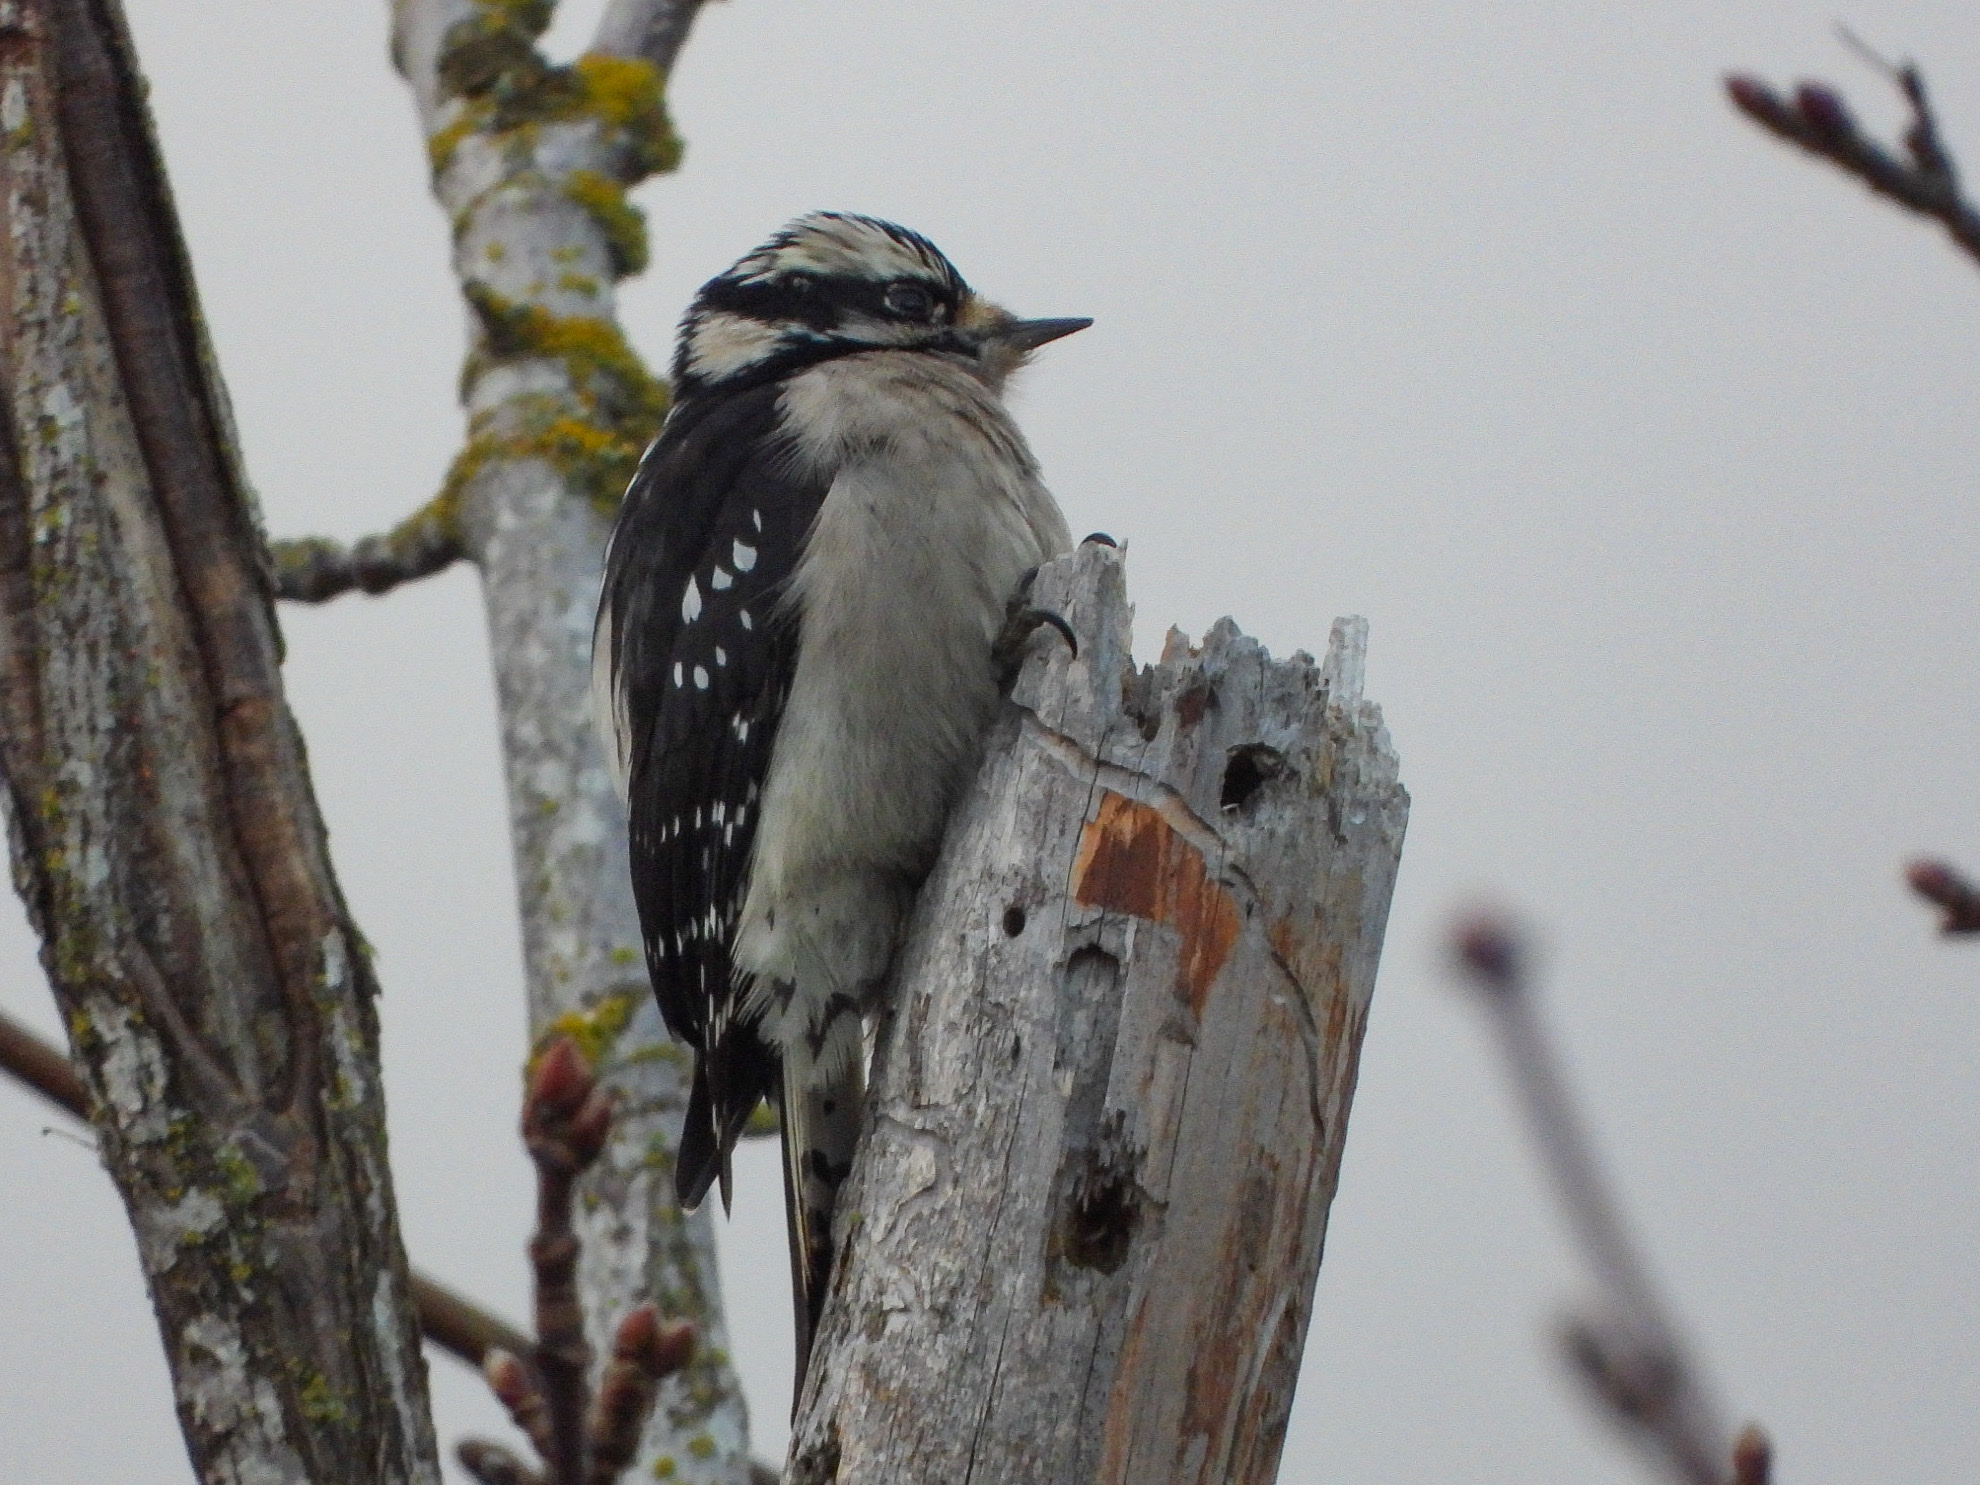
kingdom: Animalia
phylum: Chordata
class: Aves
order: Piciformes
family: Picidae
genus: Dryobates
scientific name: Dryobates pubescens
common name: Downy woodpecker
